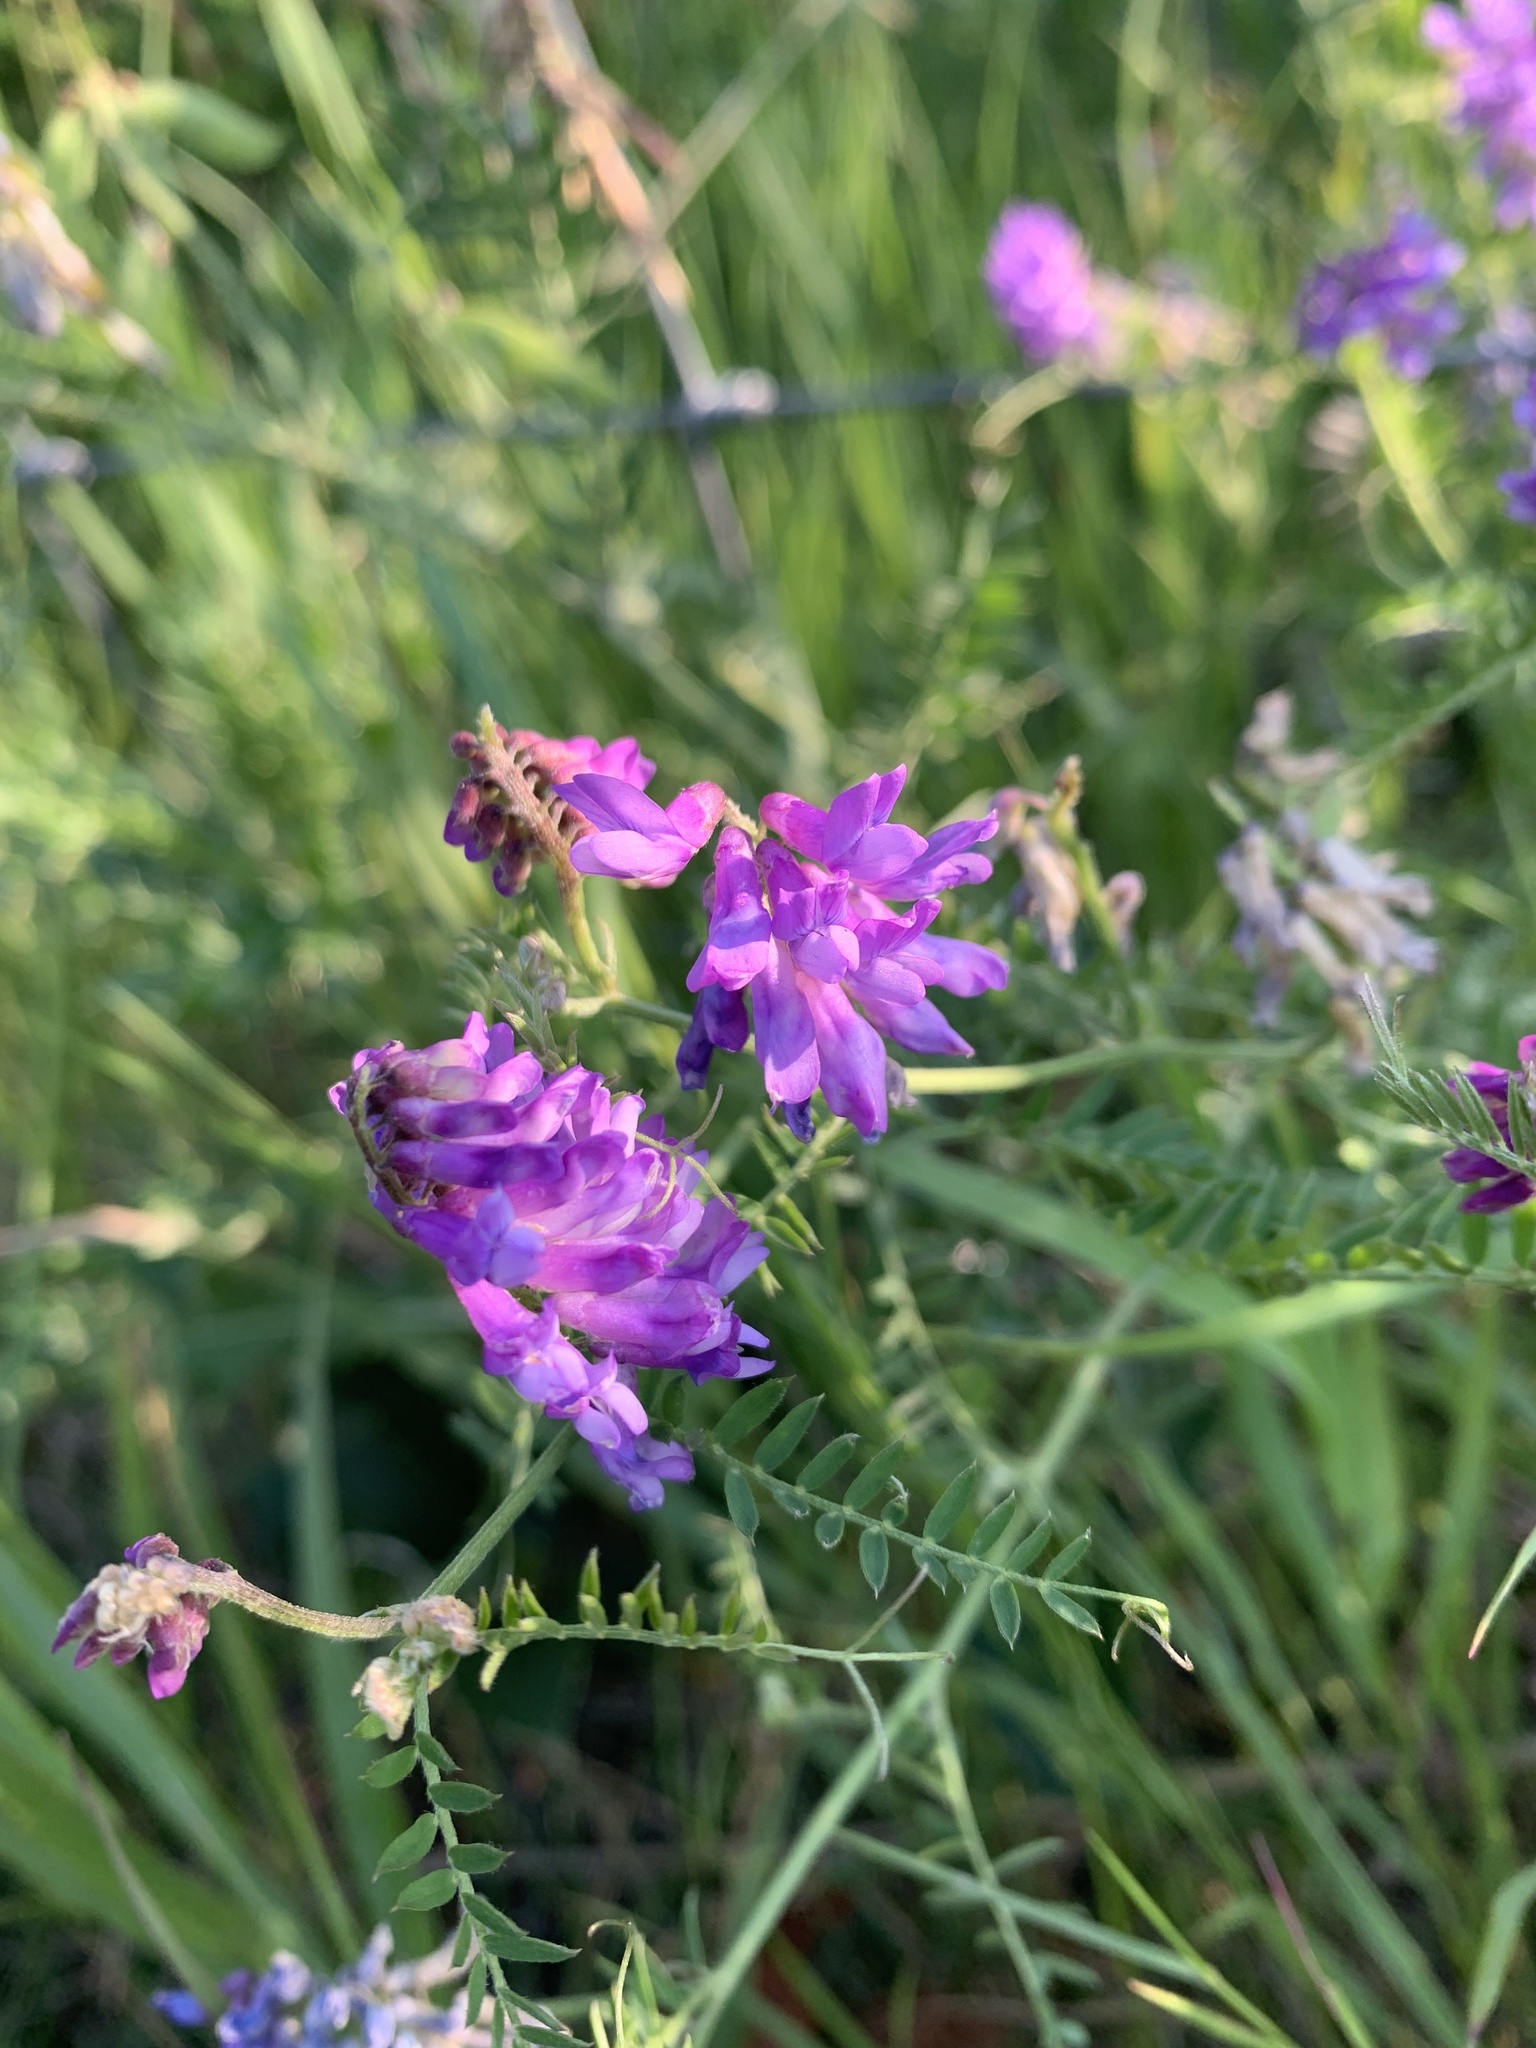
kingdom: Plantae
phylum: Tracheophyta
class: Magnoliopsida
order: Fabales
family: Fabaceae
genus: Vicia
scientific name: Vicia cracca
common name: Bird vetch
